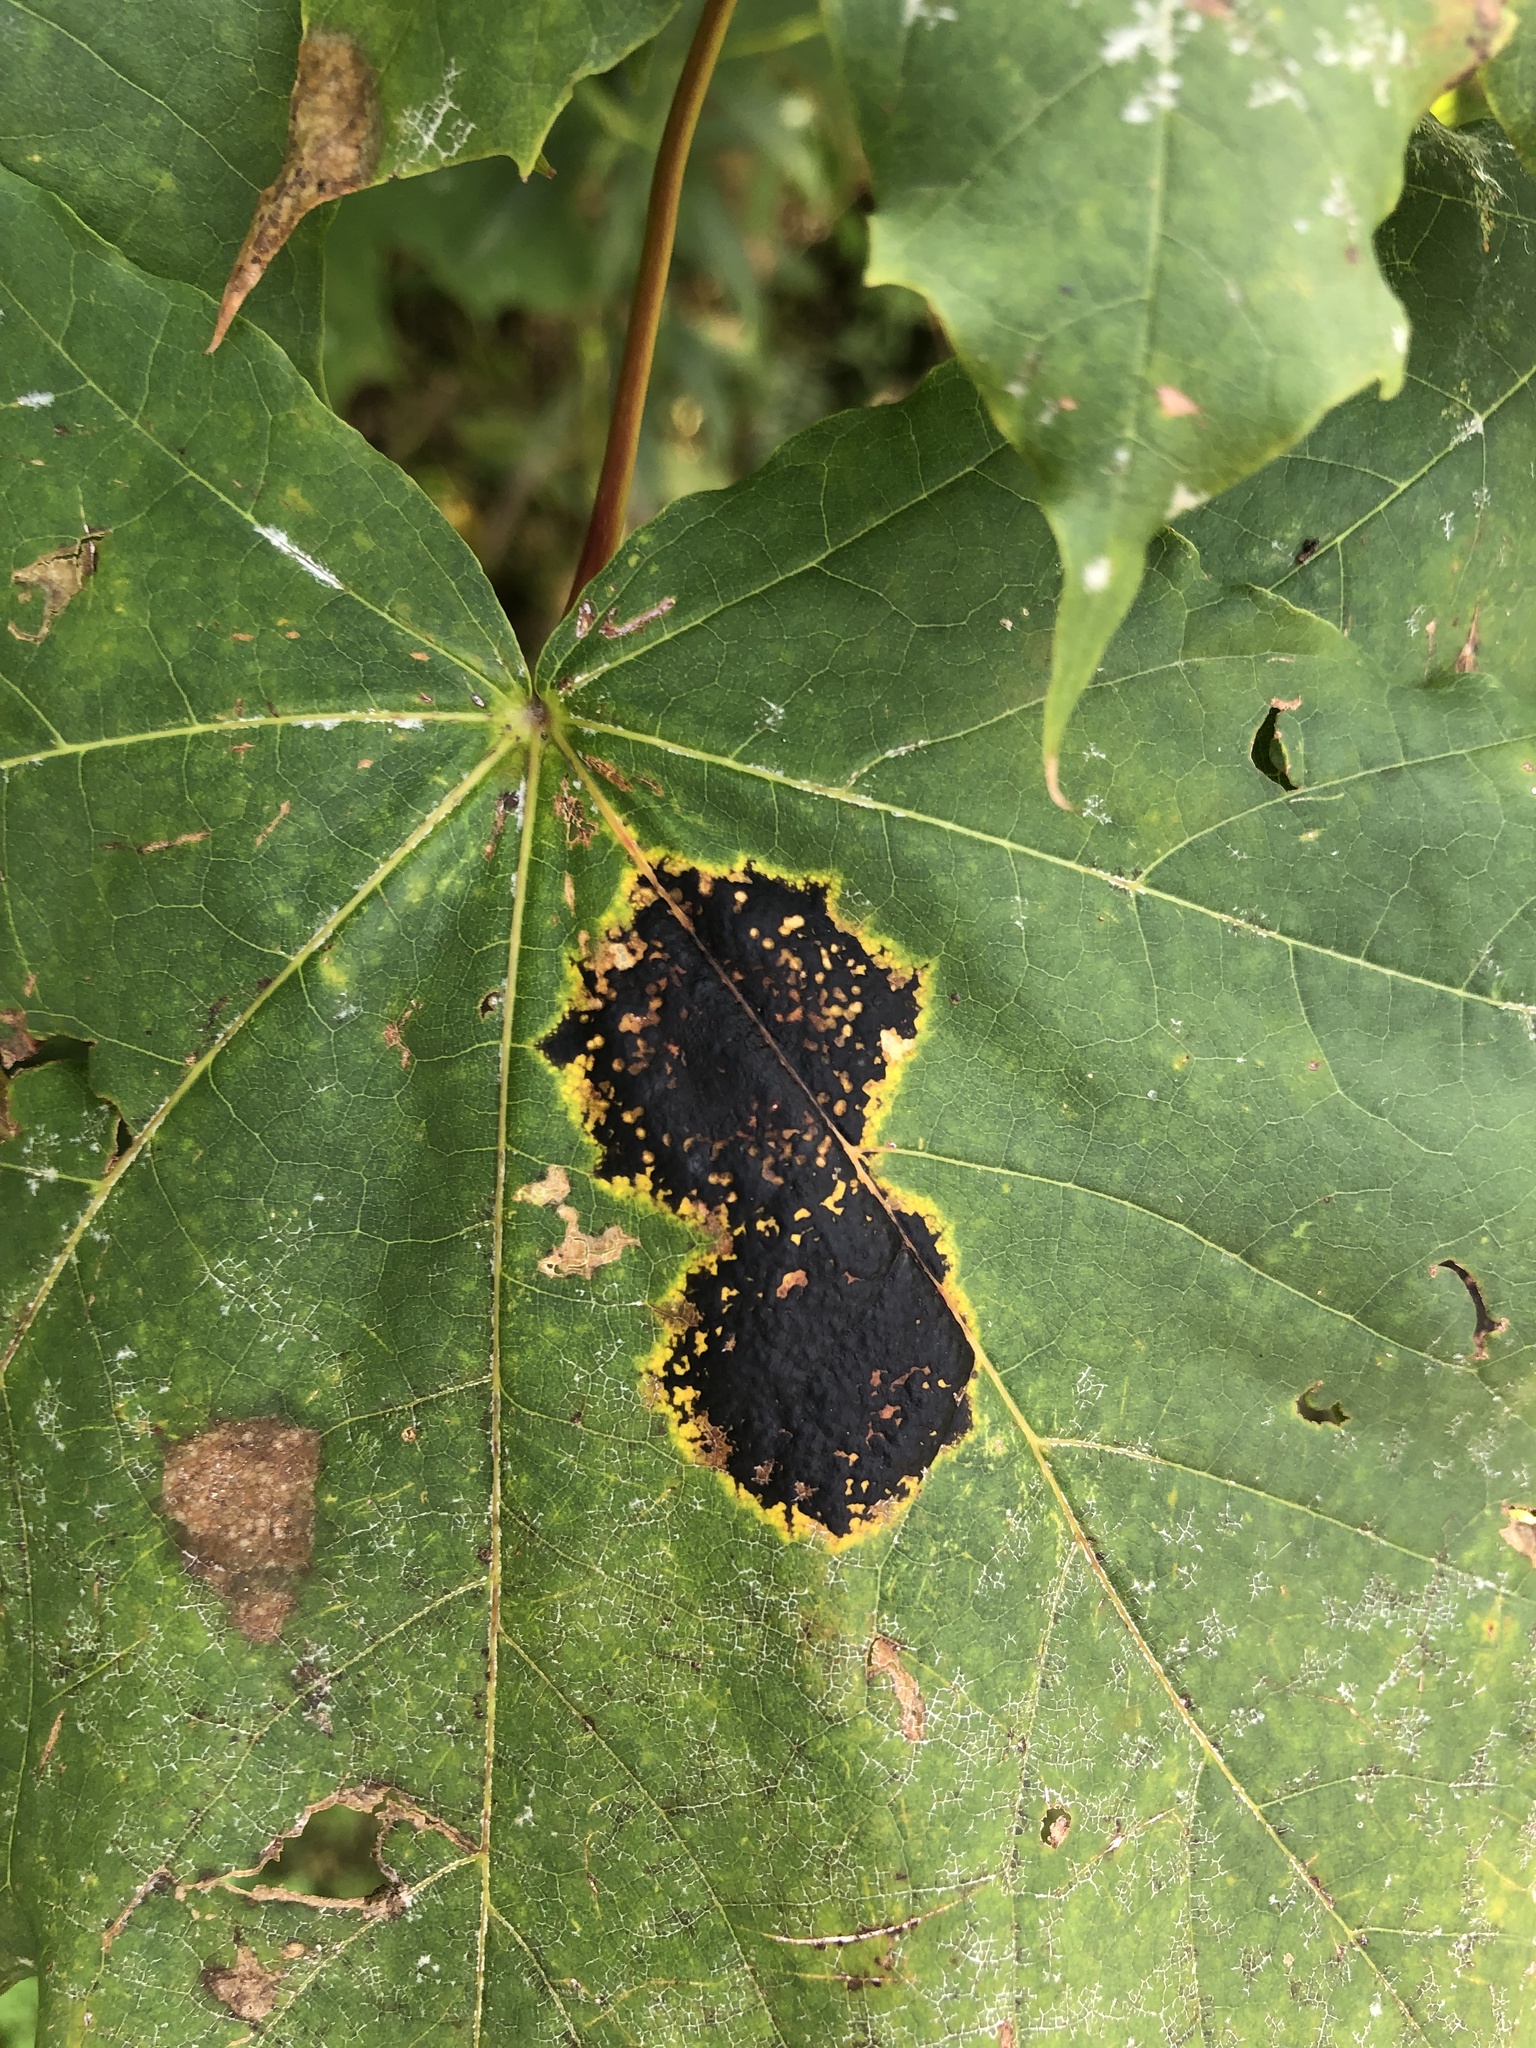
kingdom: Fungi
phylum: Ascomycota
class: Leotiomycetes
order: Rhytismatales
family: Rhytismataceae
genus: Rhytisma
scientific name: Rhytisma acerinum
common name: European tar spot
